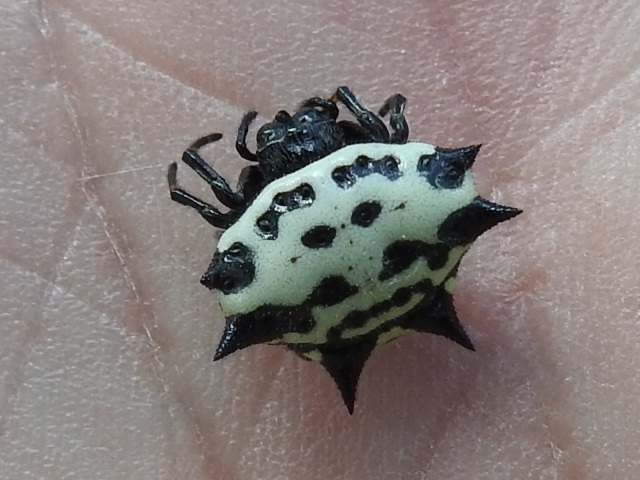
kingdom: Animalia
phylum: Arthropoda
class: Arachnida
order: Araneae
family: Araneidae
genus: Gasteracantha
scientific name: Gasteracantha cancriformis
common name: Orb weavers
